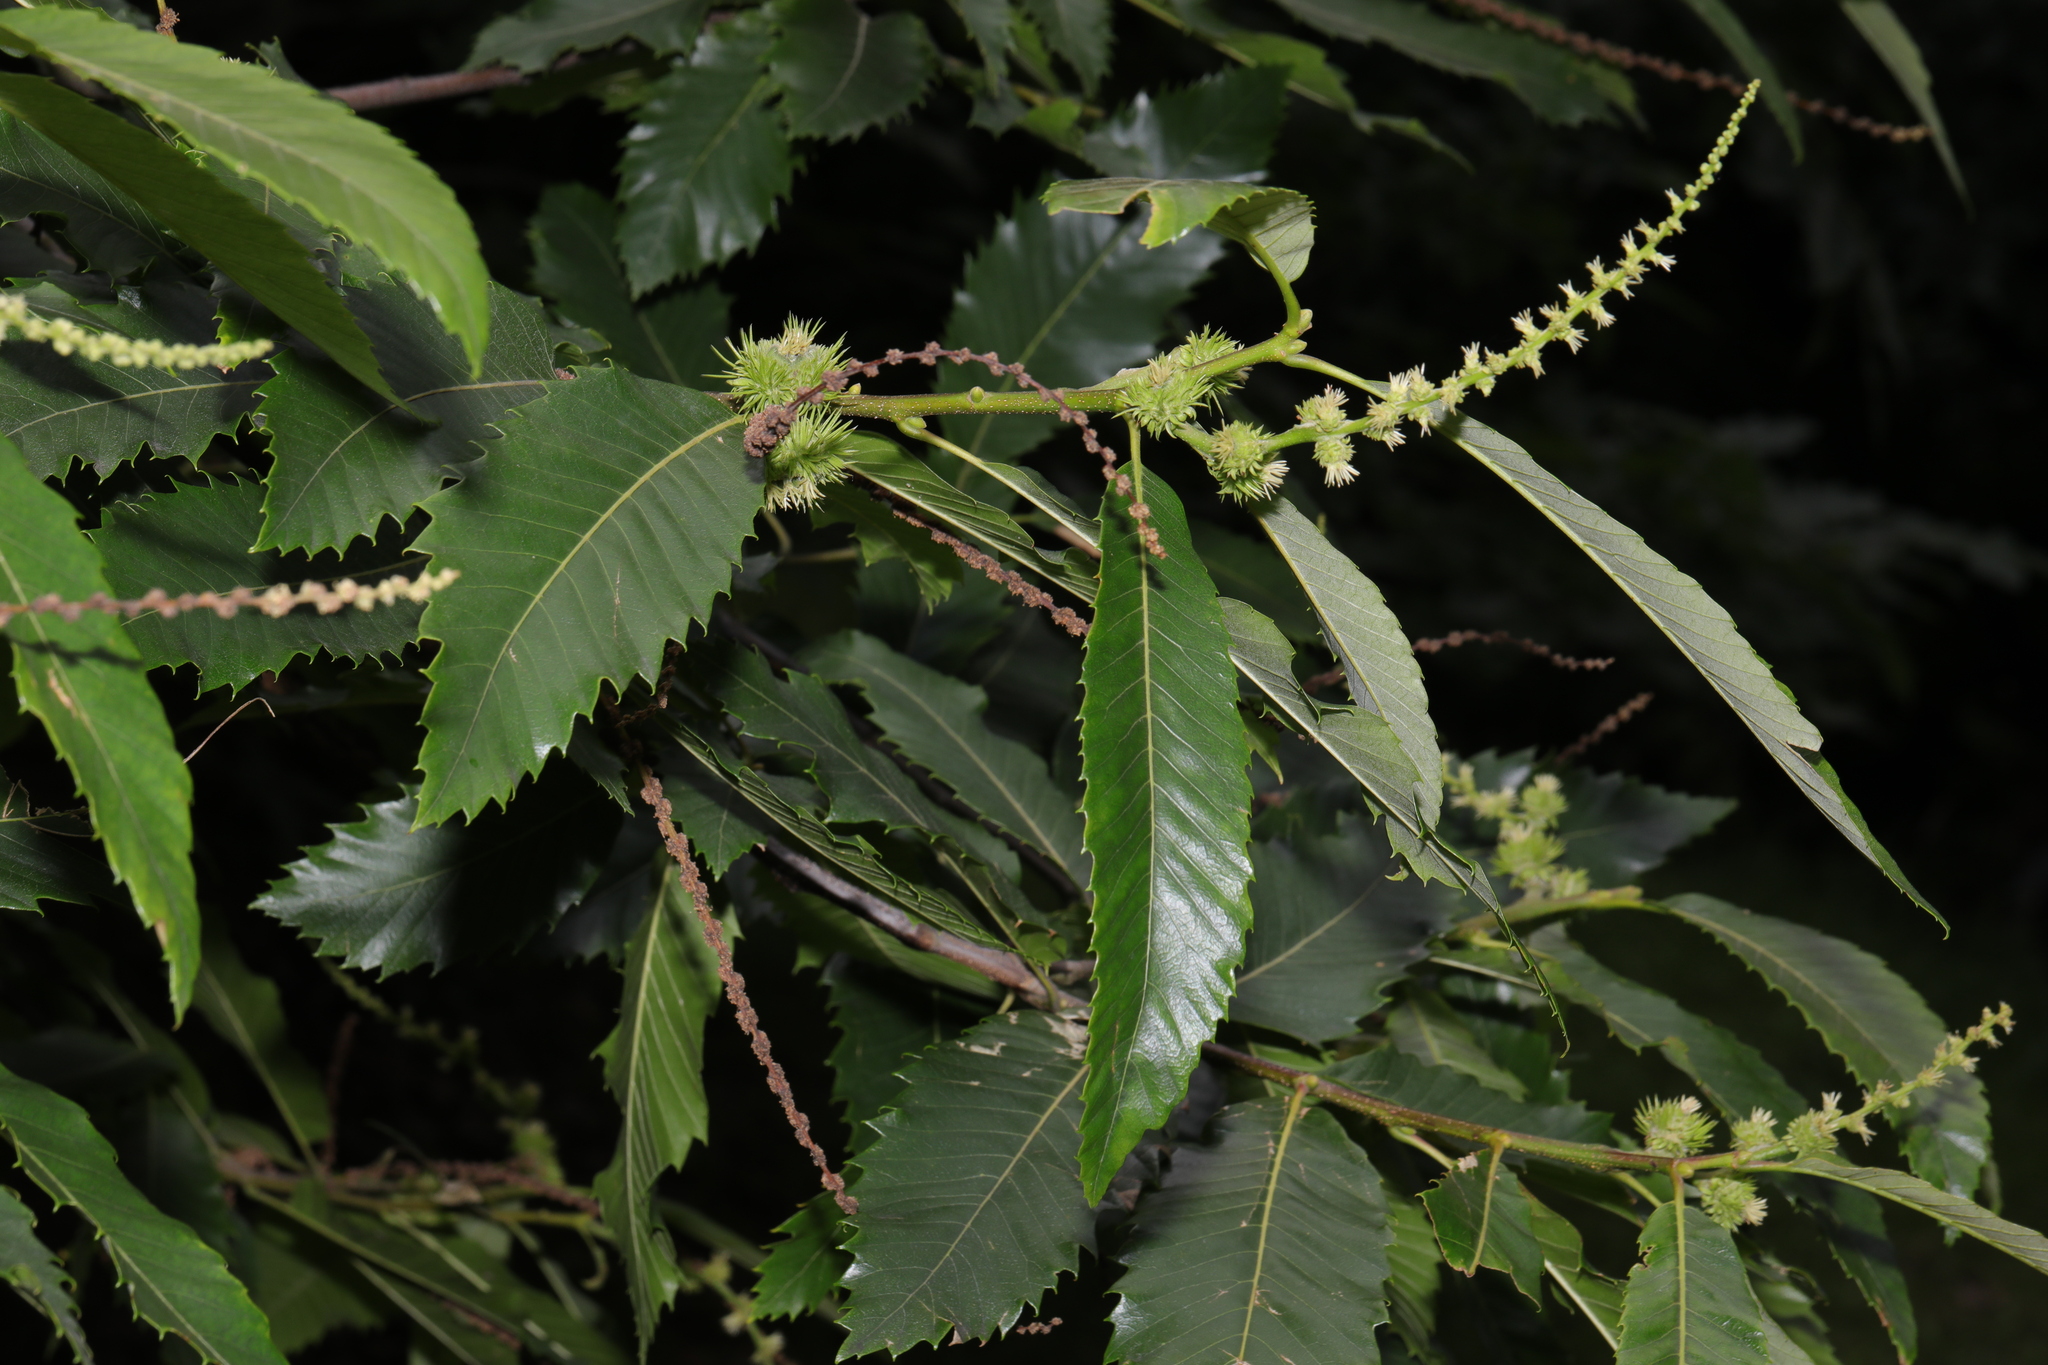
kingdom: Plantae
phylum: Tracheophyta
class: Magnoliopsida
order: Fagales
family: Fagaceae
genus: Castanea
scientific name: Castanea sativa
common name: Sweet chestnut
